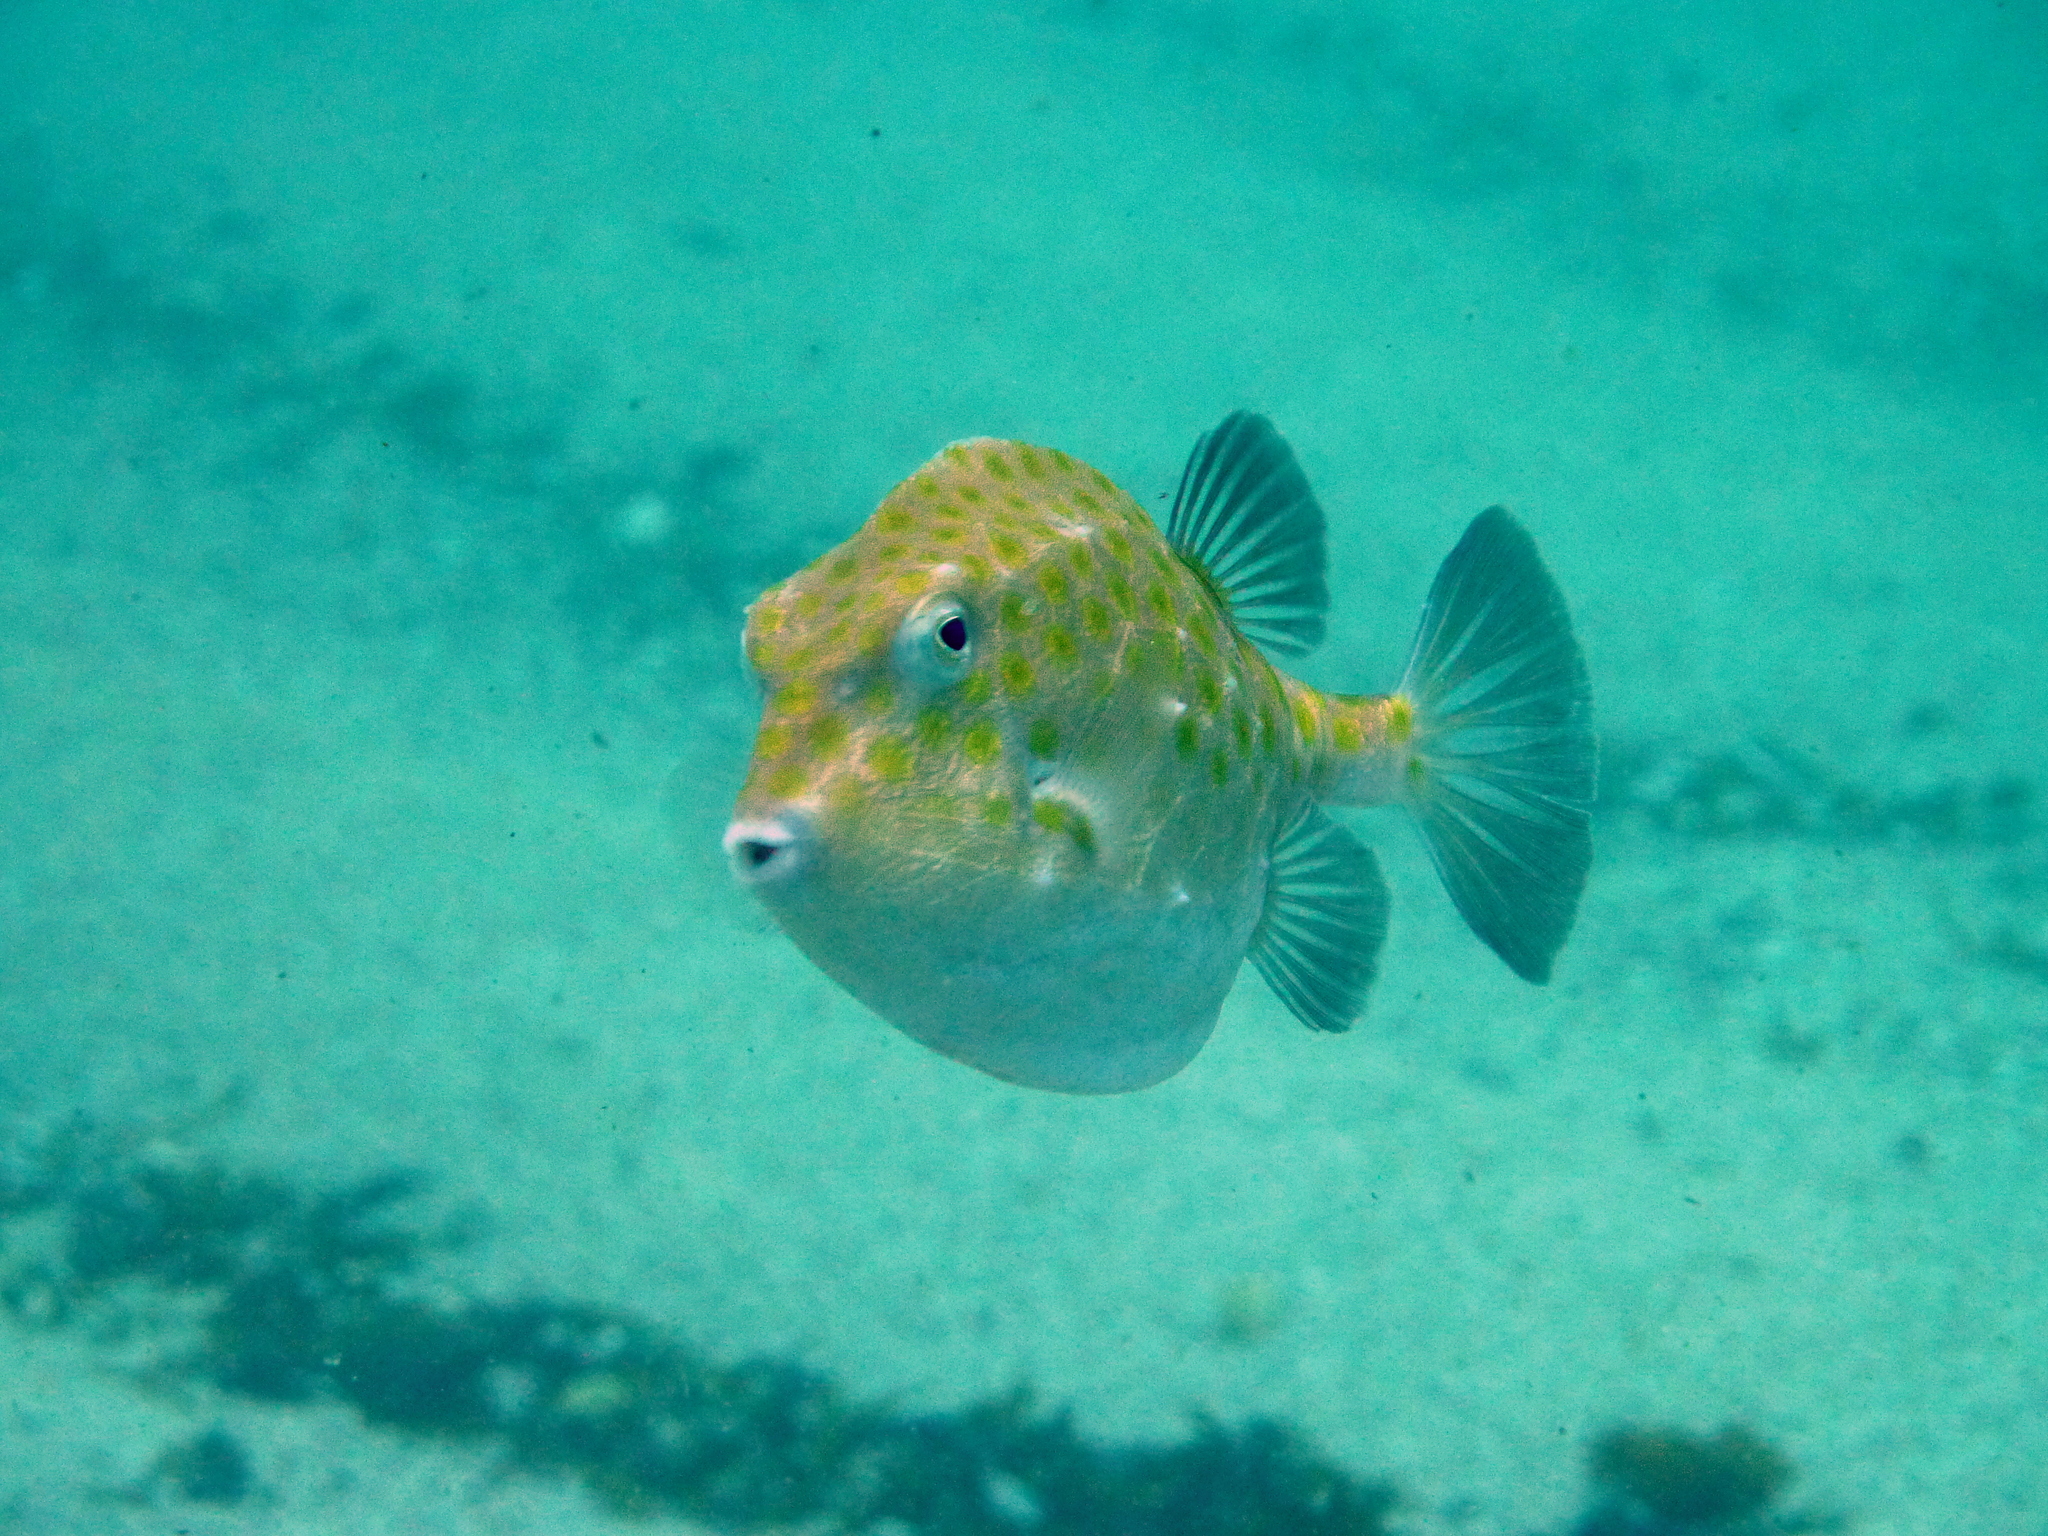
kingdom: Animalia
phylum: Chordata
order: Tetraodontiformes
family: Aracanidae
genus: Anoplocapros
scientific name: Anoplocapros inermis
